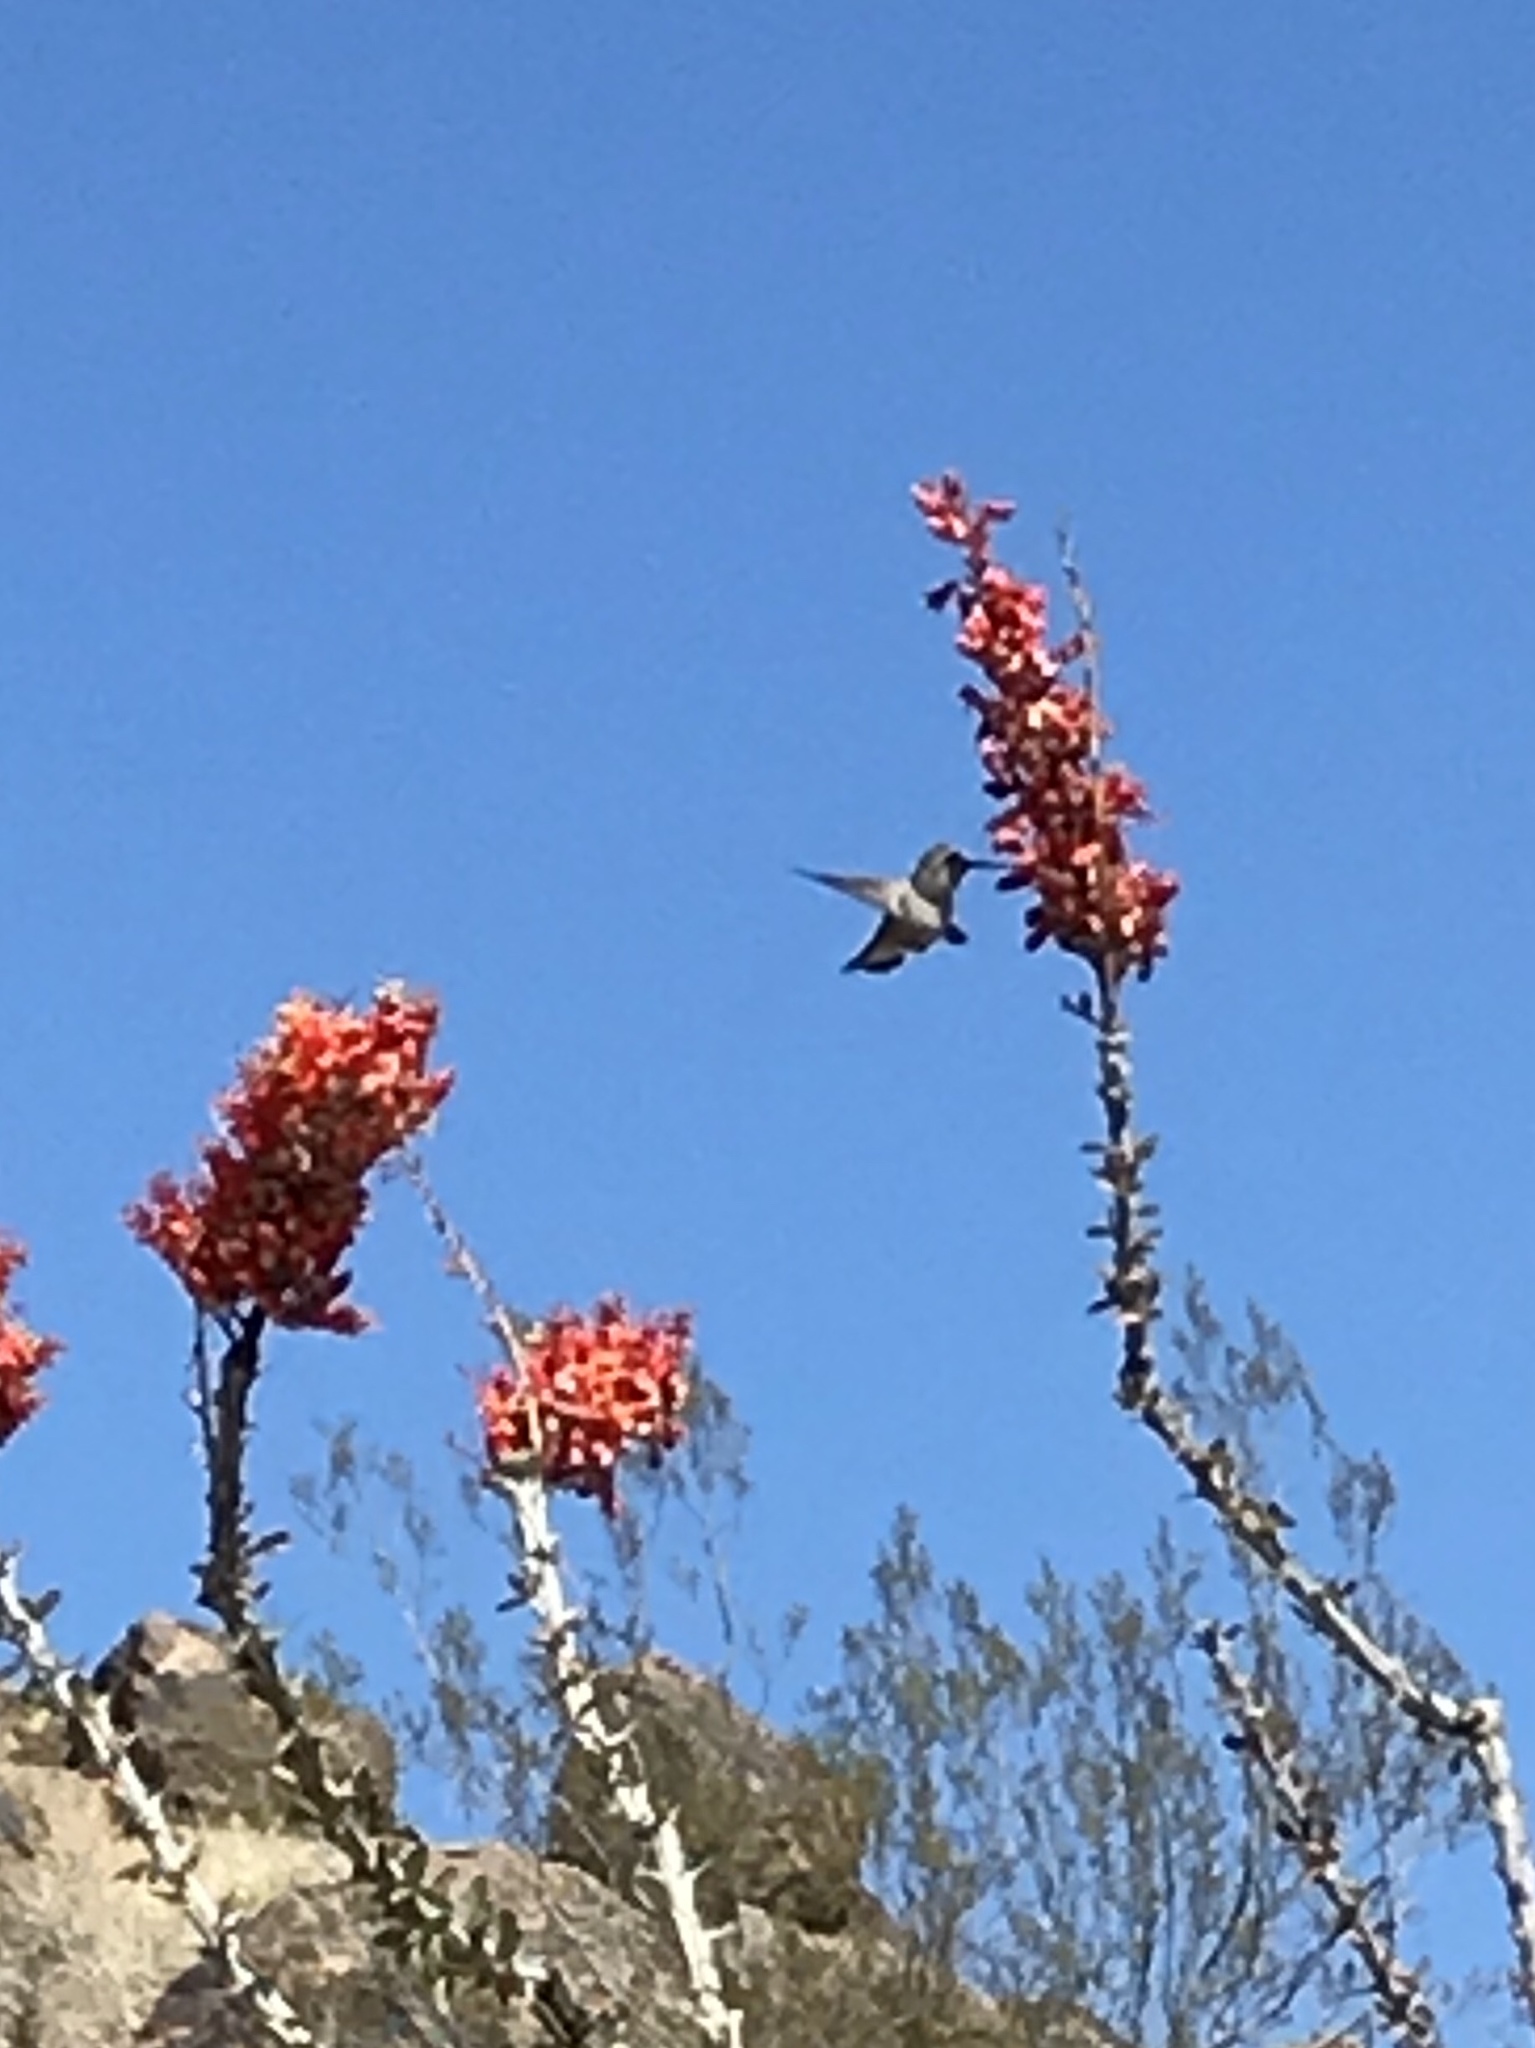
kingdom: Animalia
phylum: Chordata
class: Aves
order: Apodiformes
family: Trochilidae
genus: Calypte
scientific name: Calypte costae
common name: Costa's hummingbird
